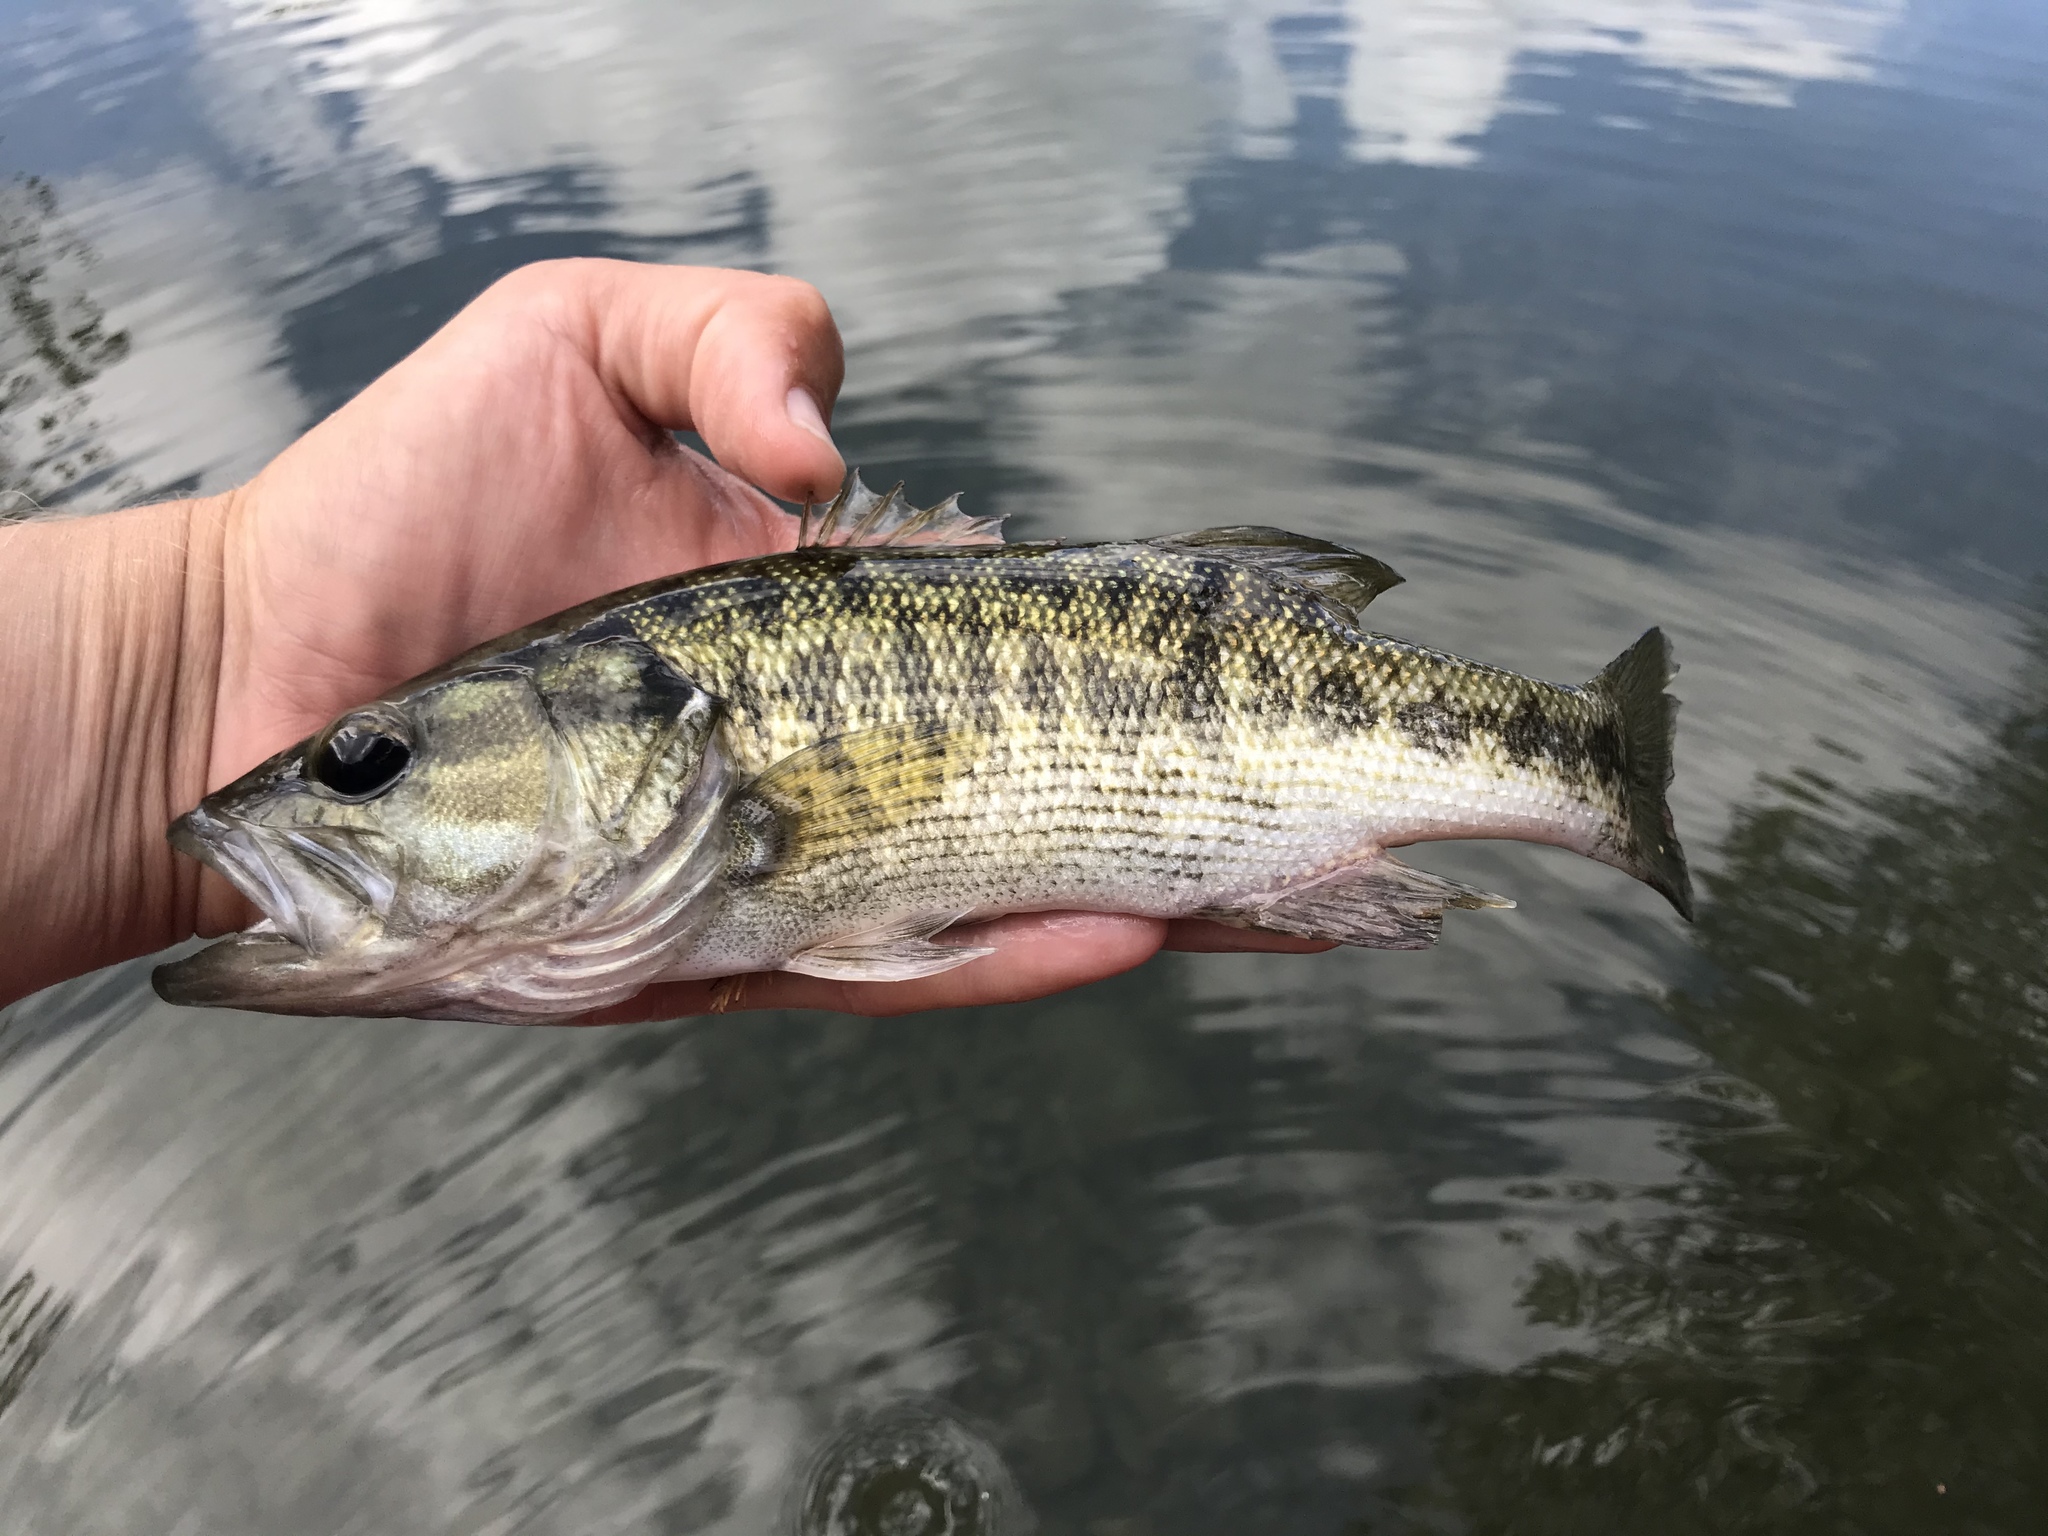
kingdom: Animalia
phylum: Chordata
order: Perciformes
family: Centrarchidae
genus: Micropterus
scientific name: Micropterus treculii
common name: Guadalupe bass
